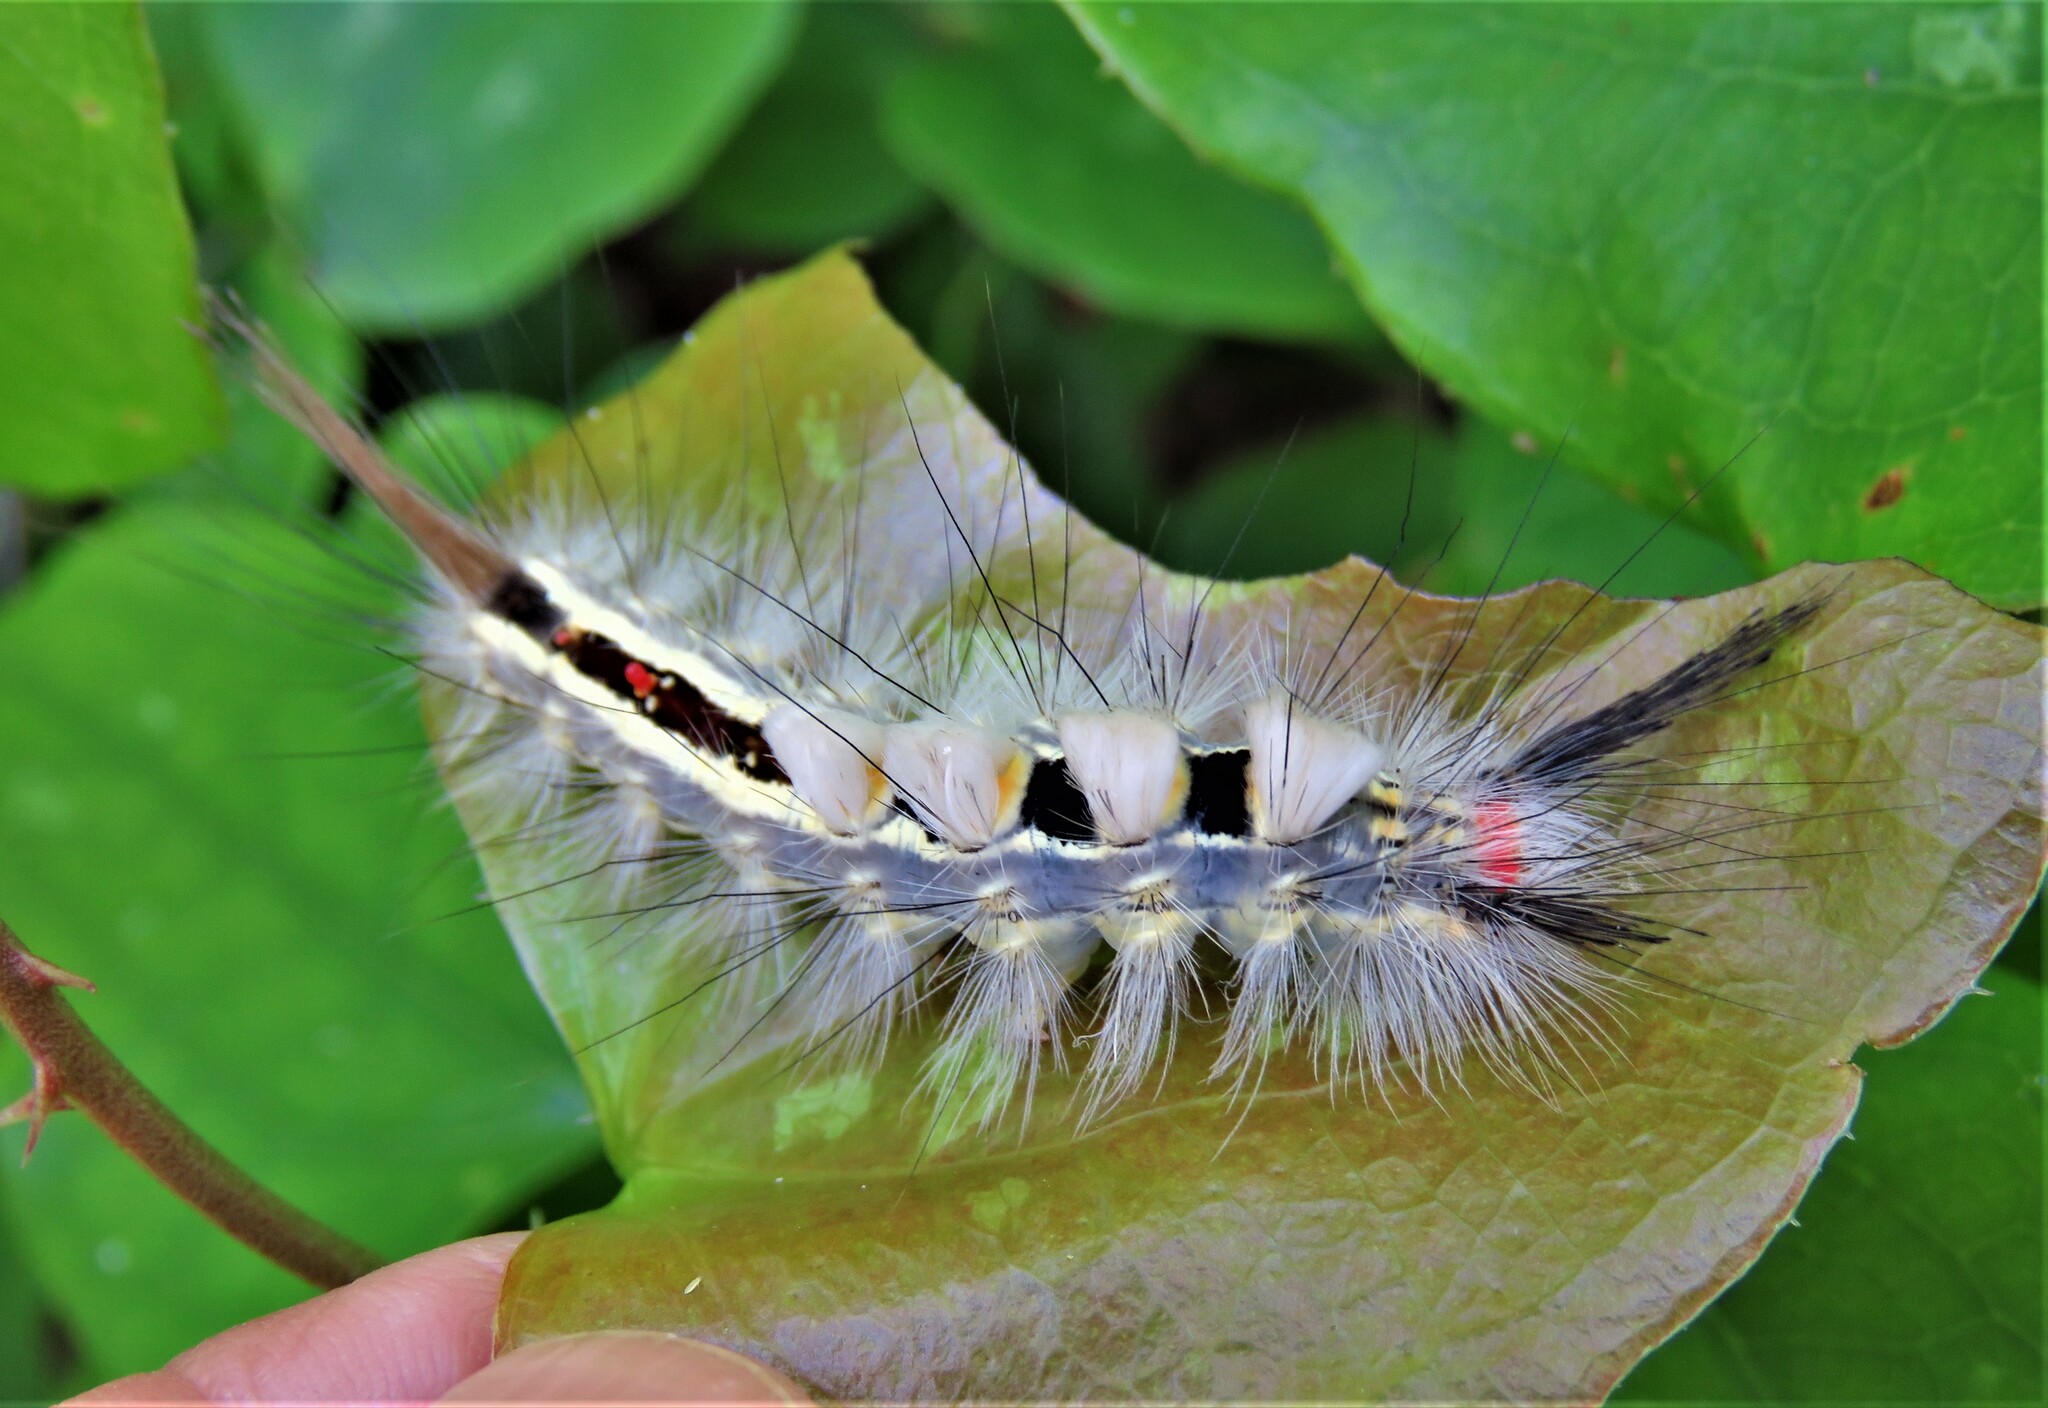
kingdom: Animalia
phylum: Arthropoda
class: Insecta
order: Lepidoptera
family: Erebidae
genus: Orgyia
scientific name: Orgyia leucostigma
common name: White-marked tussock moth
